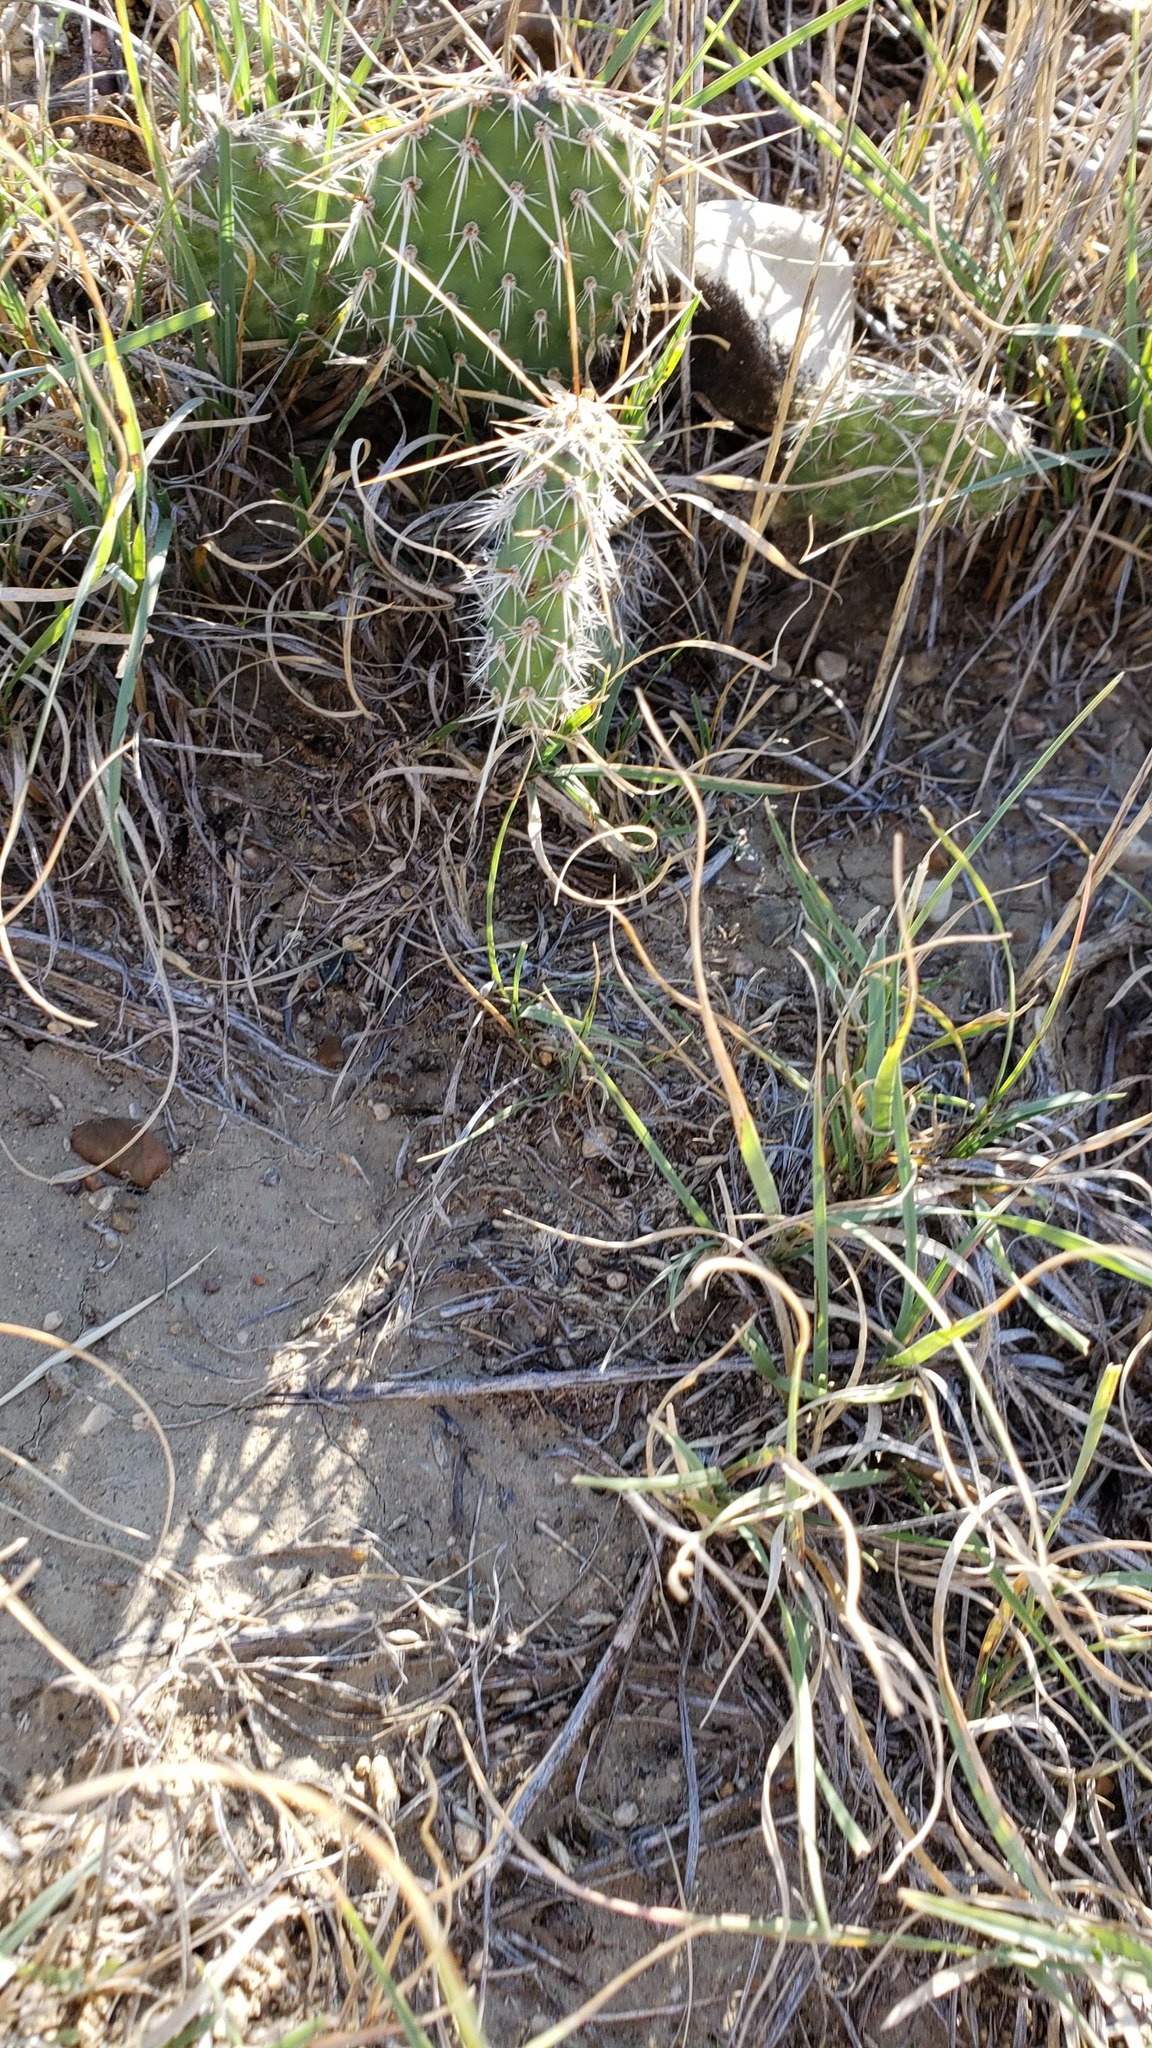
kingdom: Plantae
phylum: Tracheophyta
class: Magnoliopsida
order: Caryophyllales
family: Cactaceae
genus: Opuntia
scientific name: Opuntia polyacantha
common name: Plains prickly-pear
